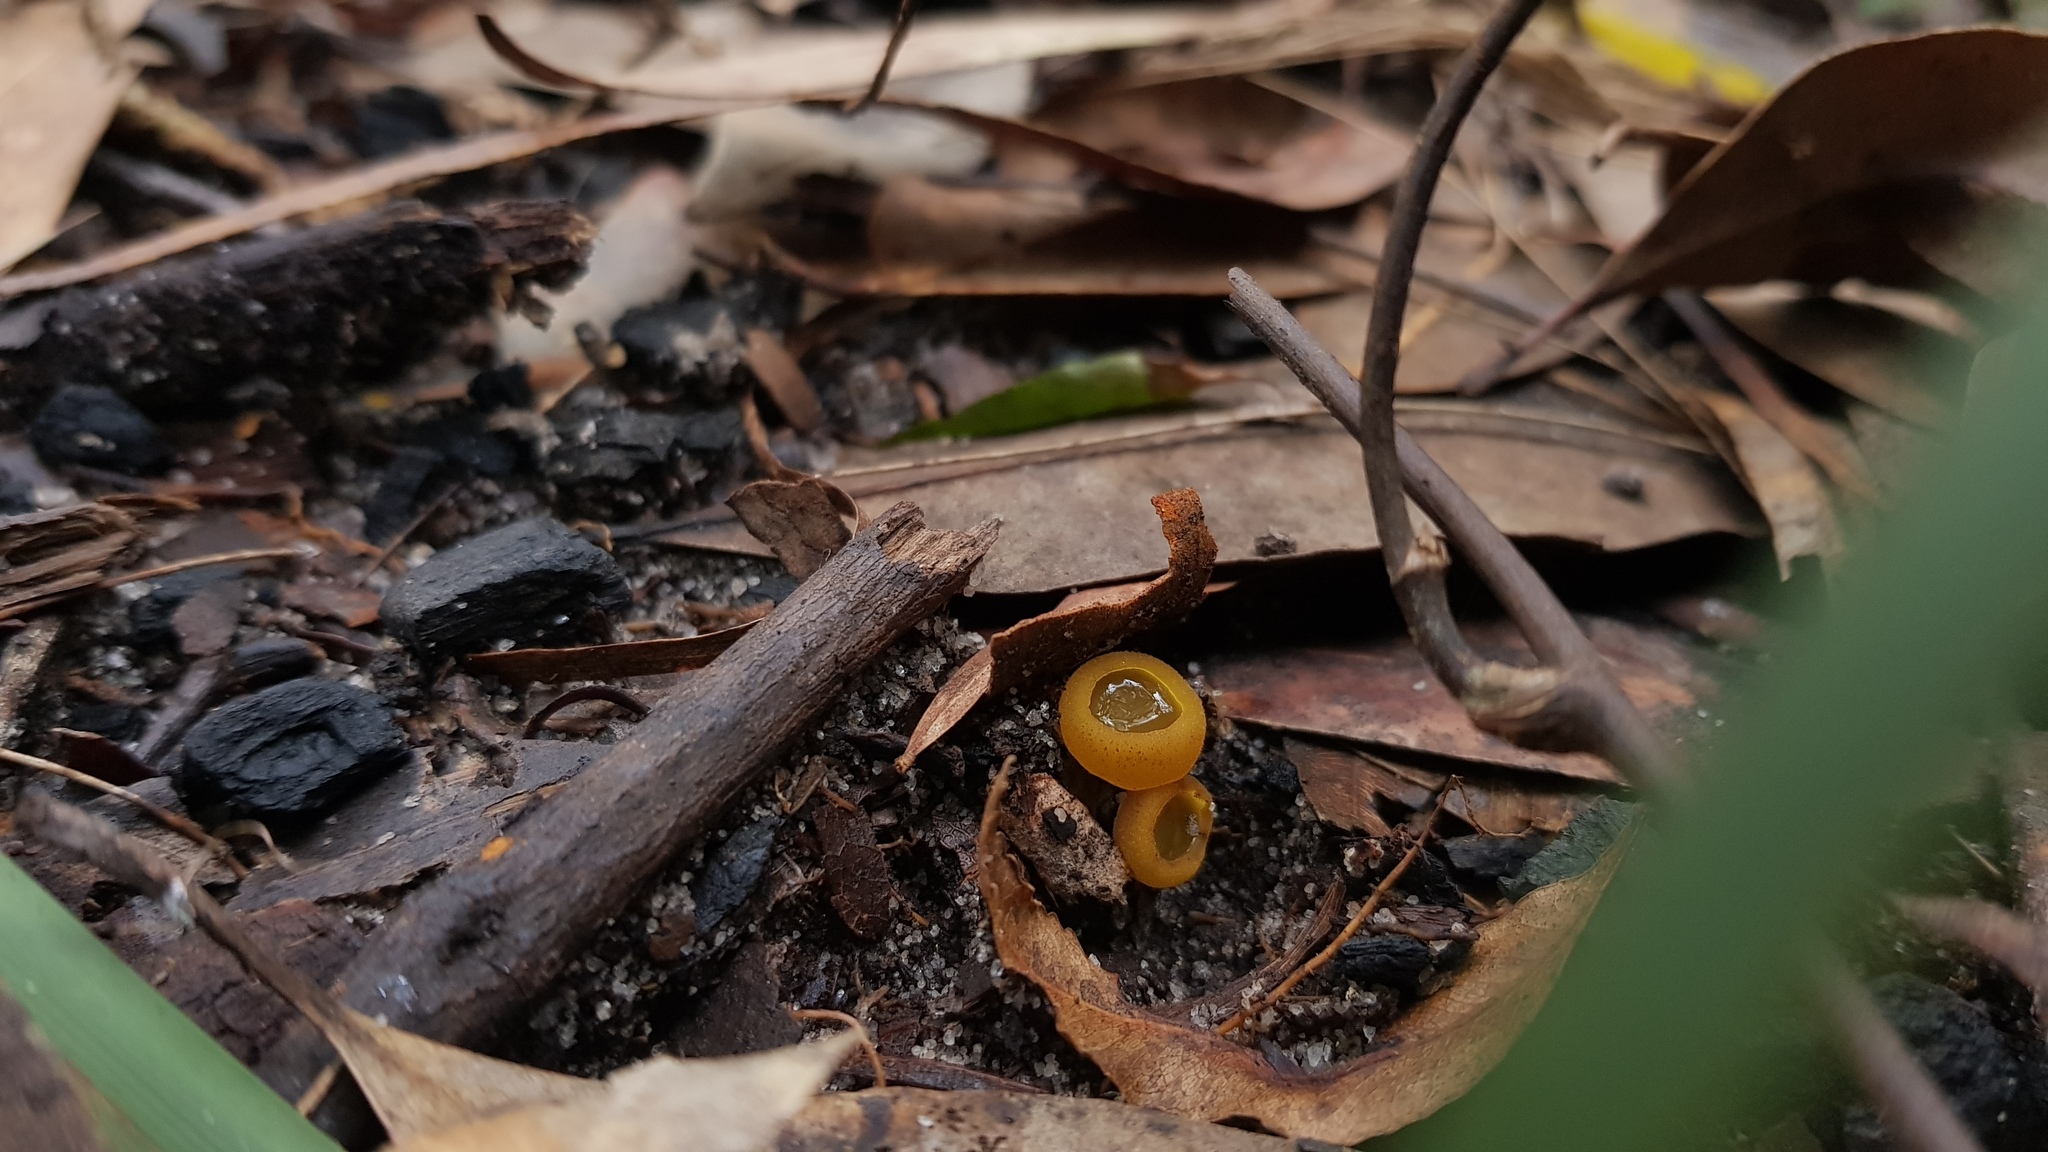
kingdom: Fungi
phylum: Ascomycota
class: Pezizomycetes
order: Pezizales
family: Pyronemataceae
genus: Aleurina
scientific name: Aleurina ferruginea
